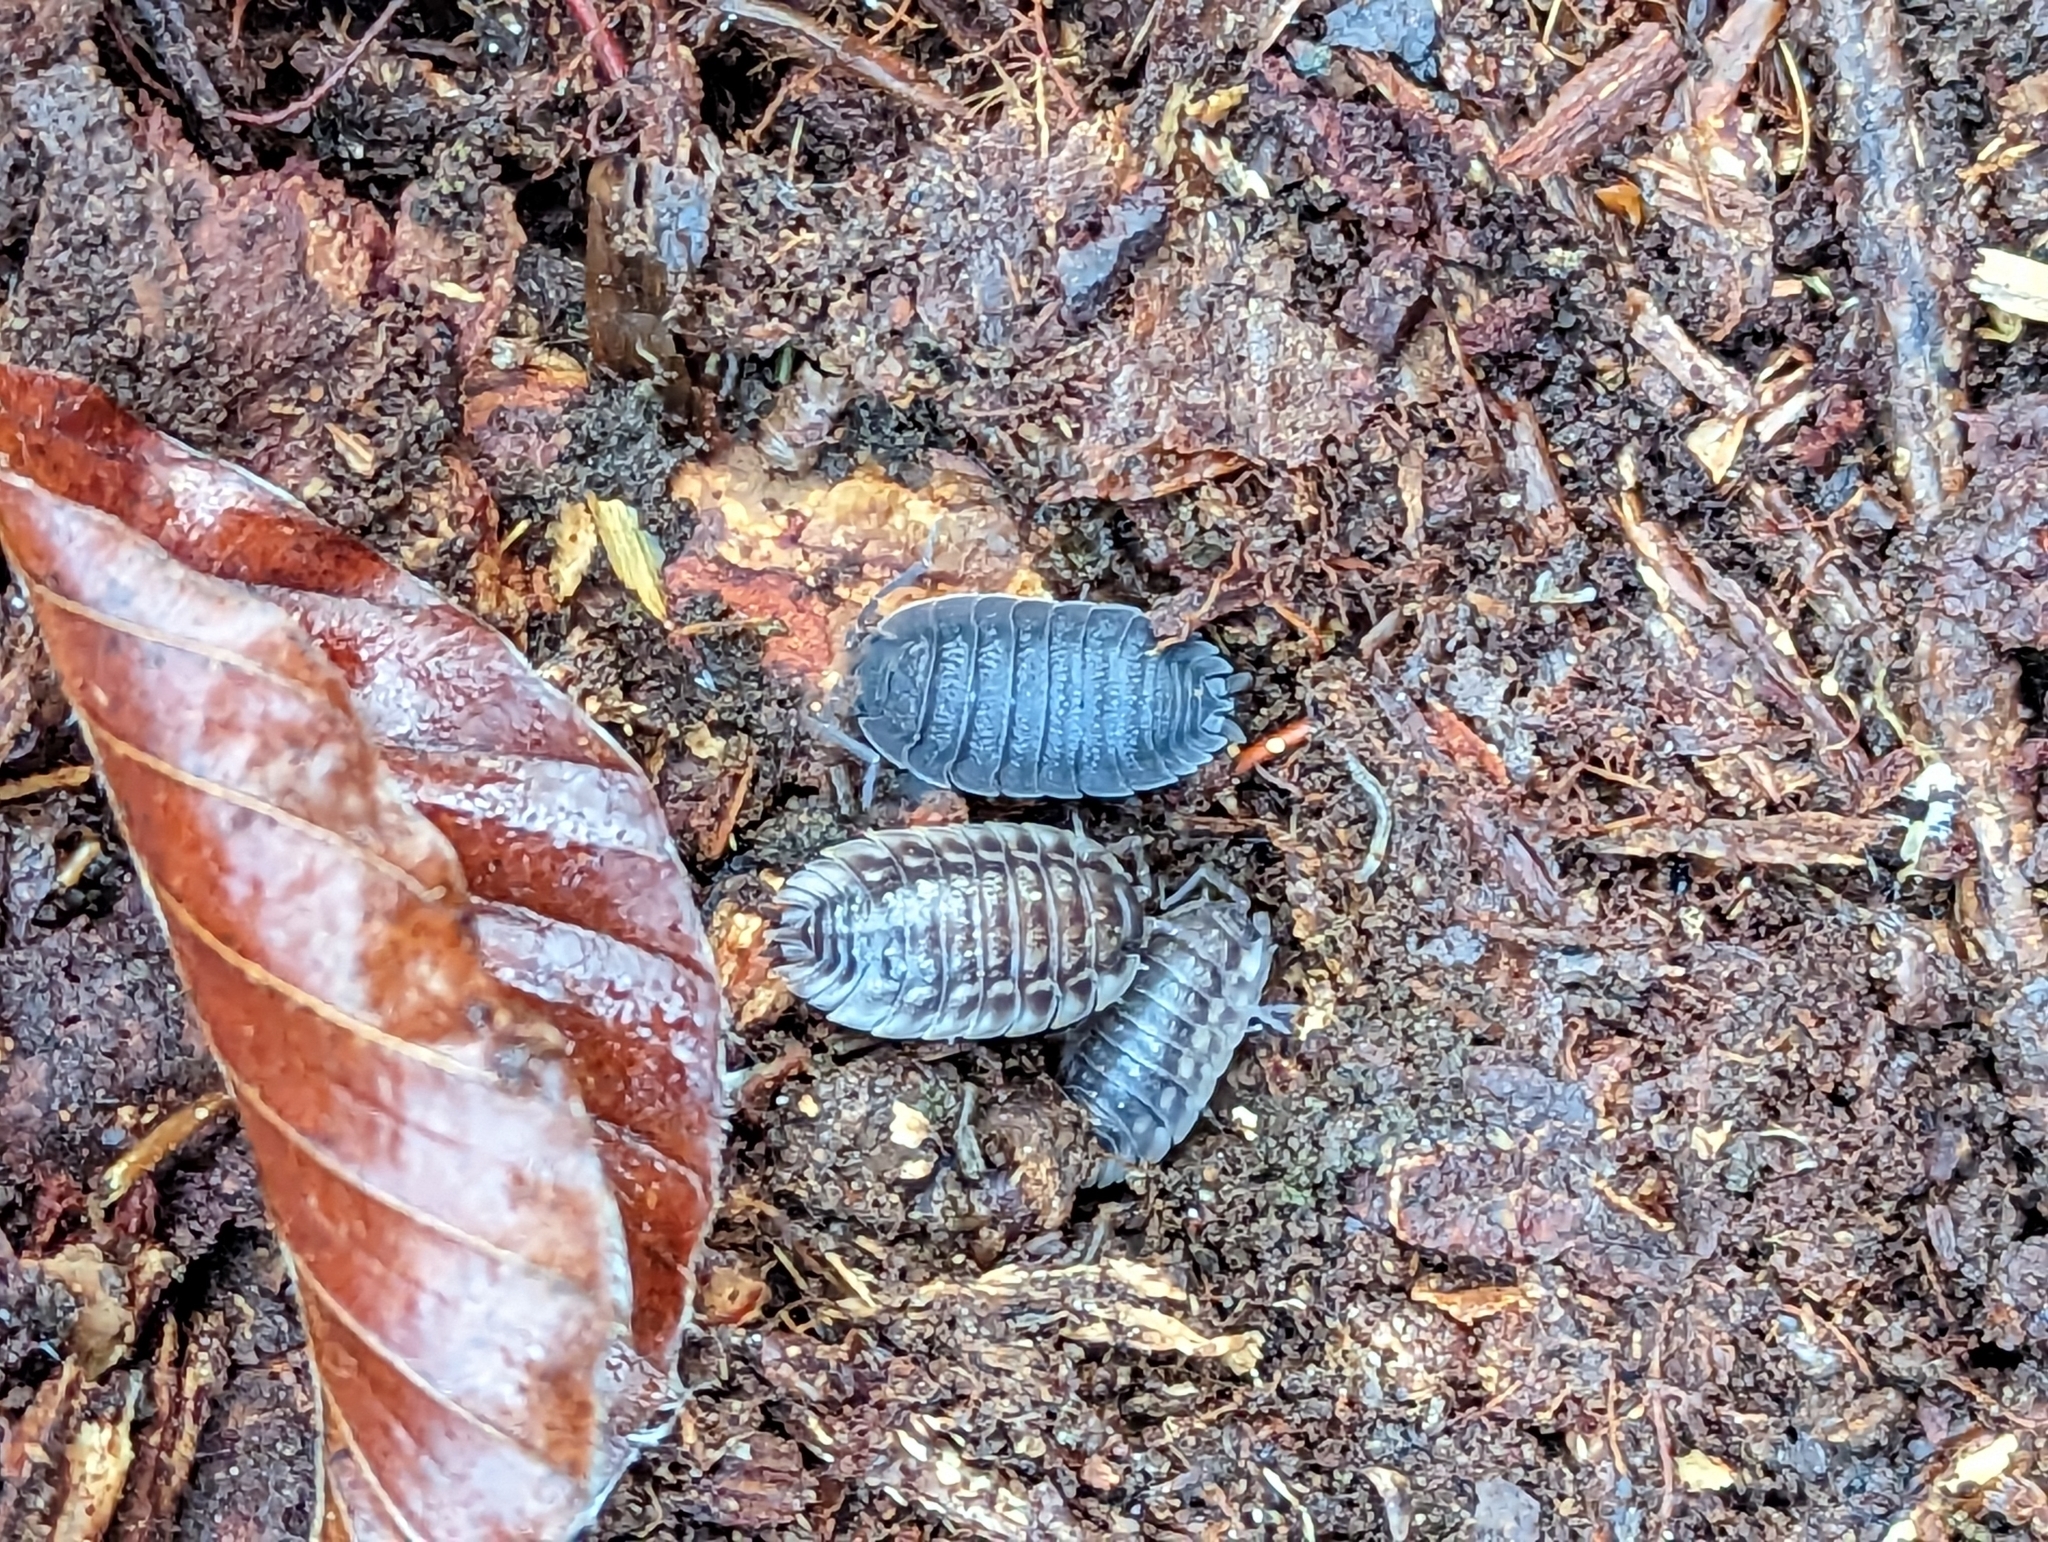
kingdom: Animalia
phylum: Arthropoda
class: Malacostraca
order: Isopoda
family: Oniscidae
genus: Oniscus
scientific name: Oniscus asellus
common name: Common shiny woodlouse
